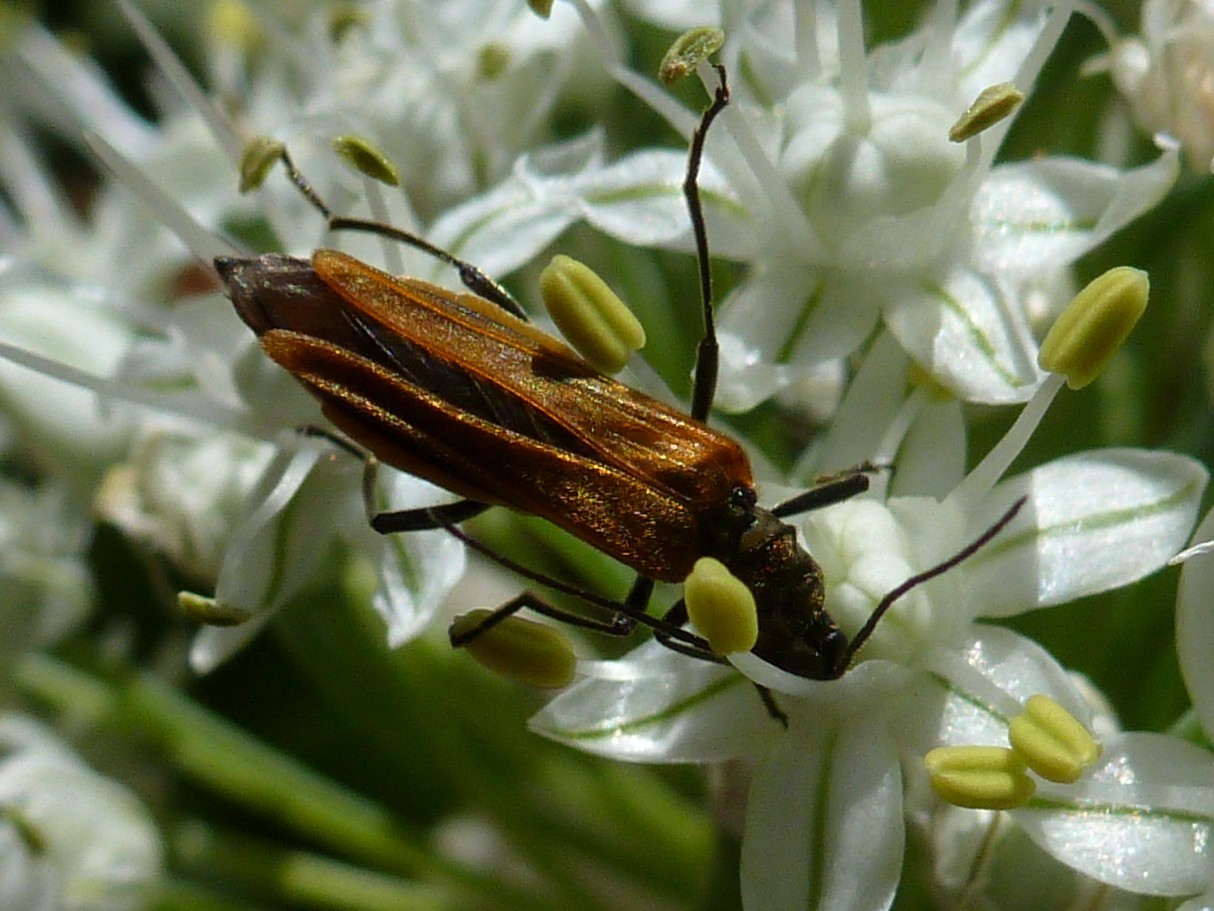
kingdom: Animalia
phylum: Arthropoda
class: Insecta
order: Coleoptera
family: Oedemeridae
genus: Oedemera
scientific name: Oedemera femorata
